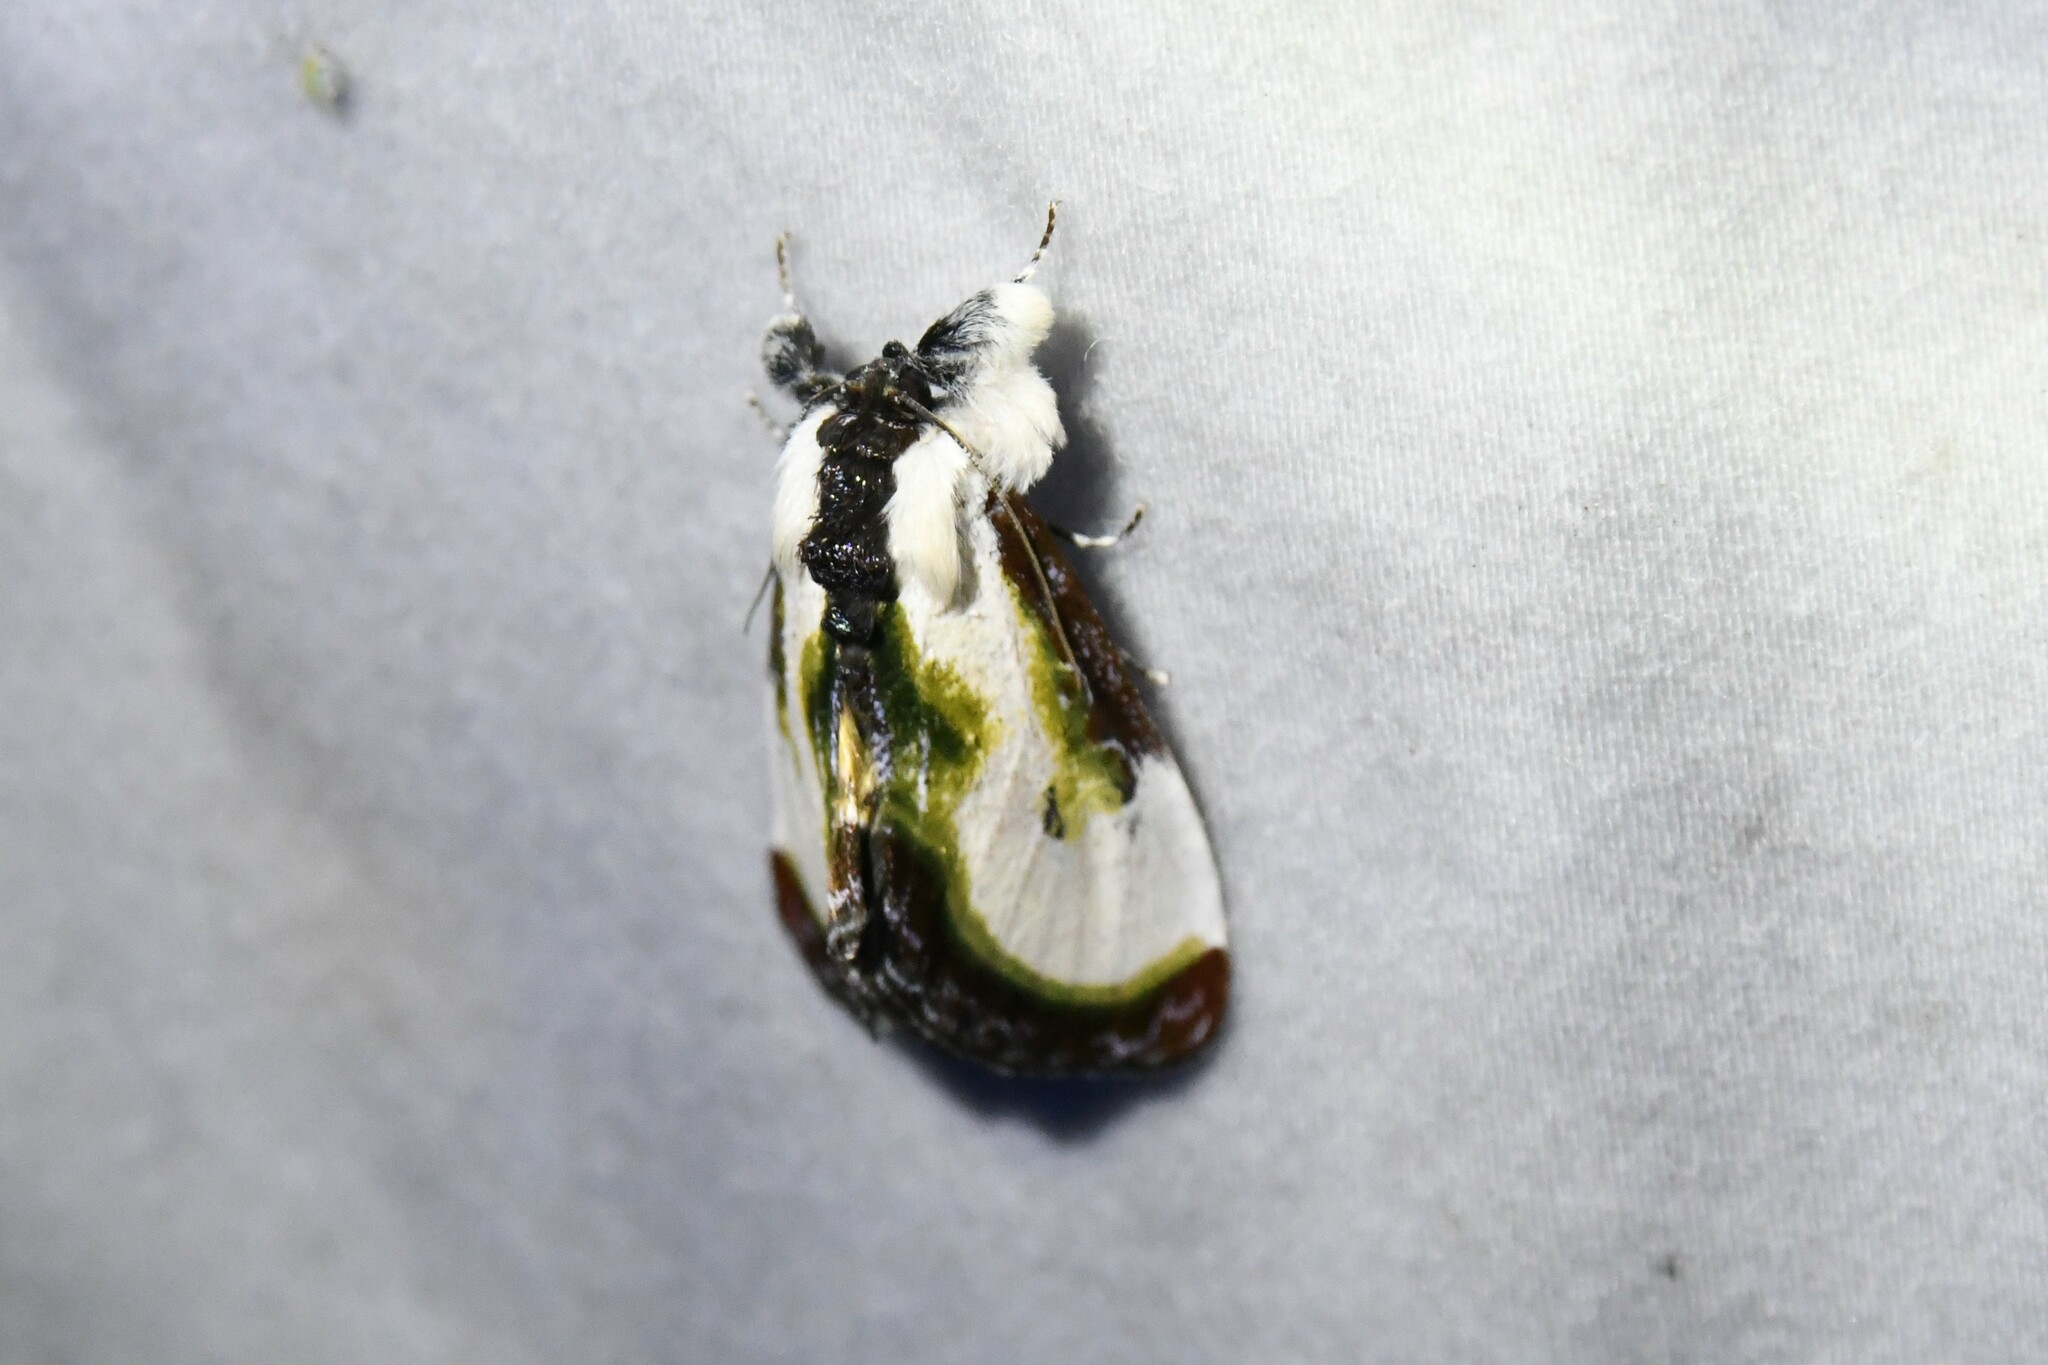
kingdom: Animalia
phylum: Arthropoda
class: Insecta
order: Lepidoptera
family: Noctuidae
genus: Eudryas
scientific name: Eudryas grata
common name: Beautiful wood-nymph
